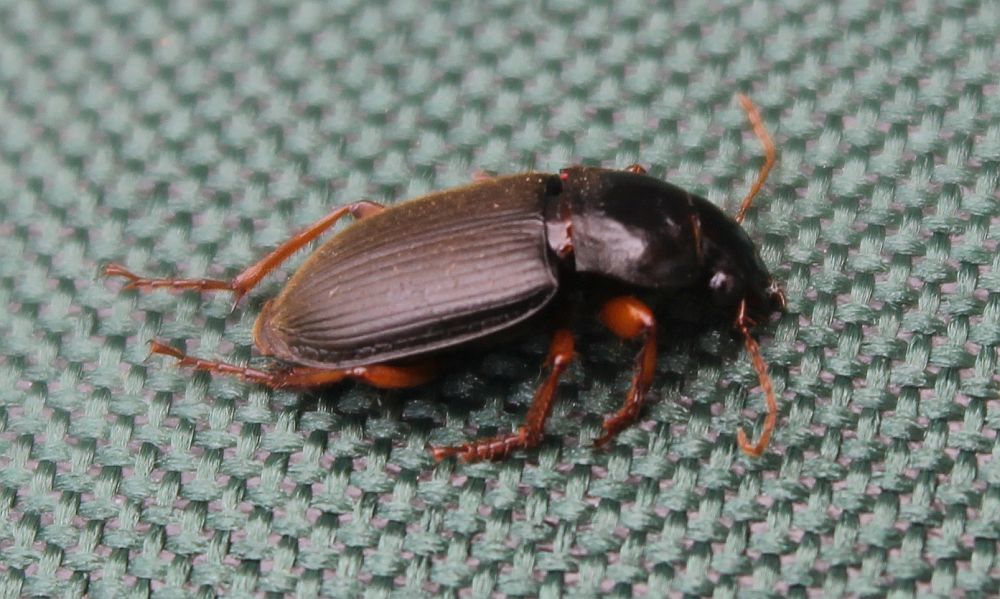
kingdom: Animalia
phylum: Arthropoda
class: Insecta
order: Coleoptera
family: Carabidae
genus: Harpalus
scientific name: Harpalus rufipes
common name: Strawberry harp ground beetle
